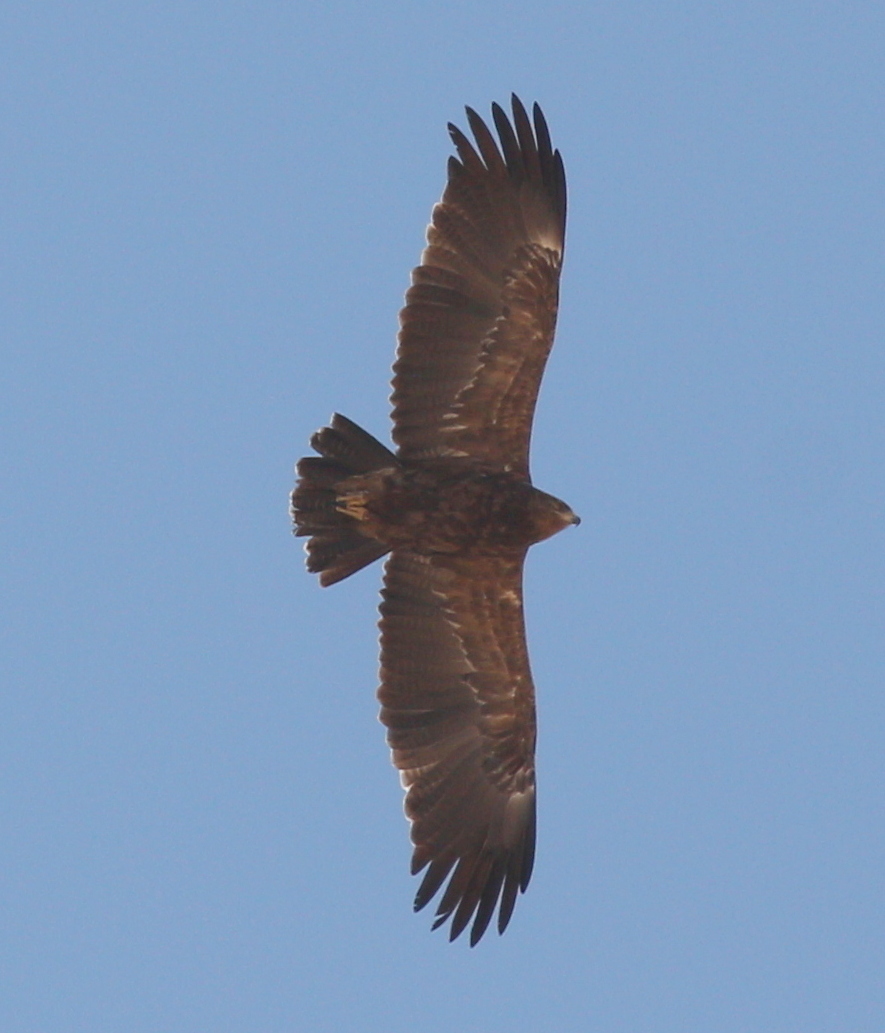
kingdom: Animalia
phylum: Chordata
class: Aves
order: Accipitriformes
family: Accipitridae
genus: Aquila
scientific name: Aquila pomarina
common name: Lesser spotted eagle
